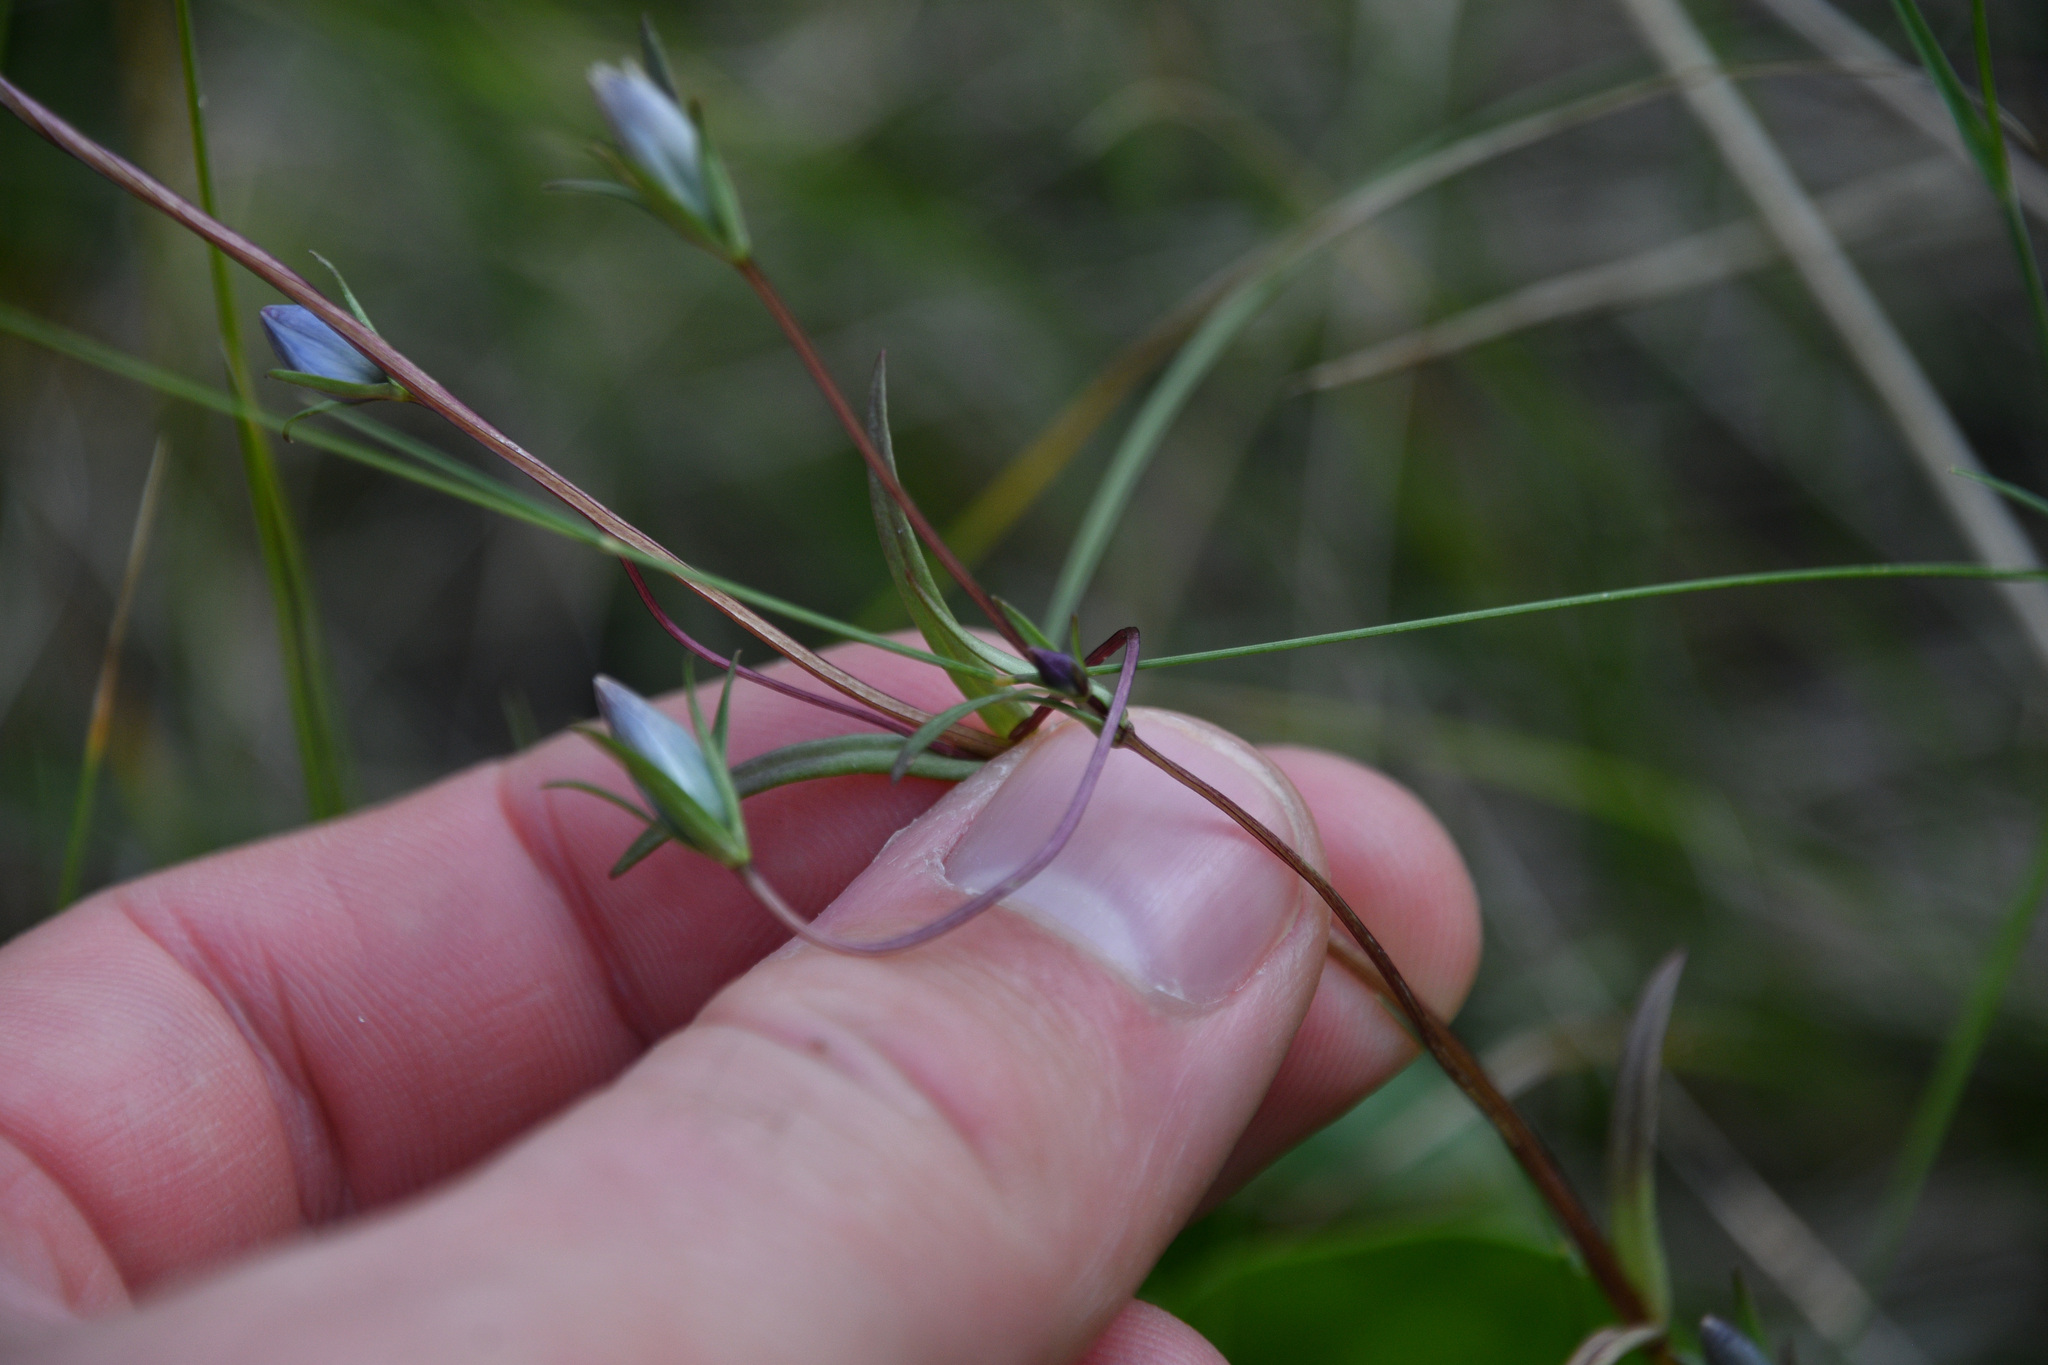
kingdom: Plantae
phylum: Tracheophyta
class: Magnoliopsida
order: Gentianales
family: Gentianaceae
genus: Lomatogonium
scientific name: Lomatogonium rotatum
